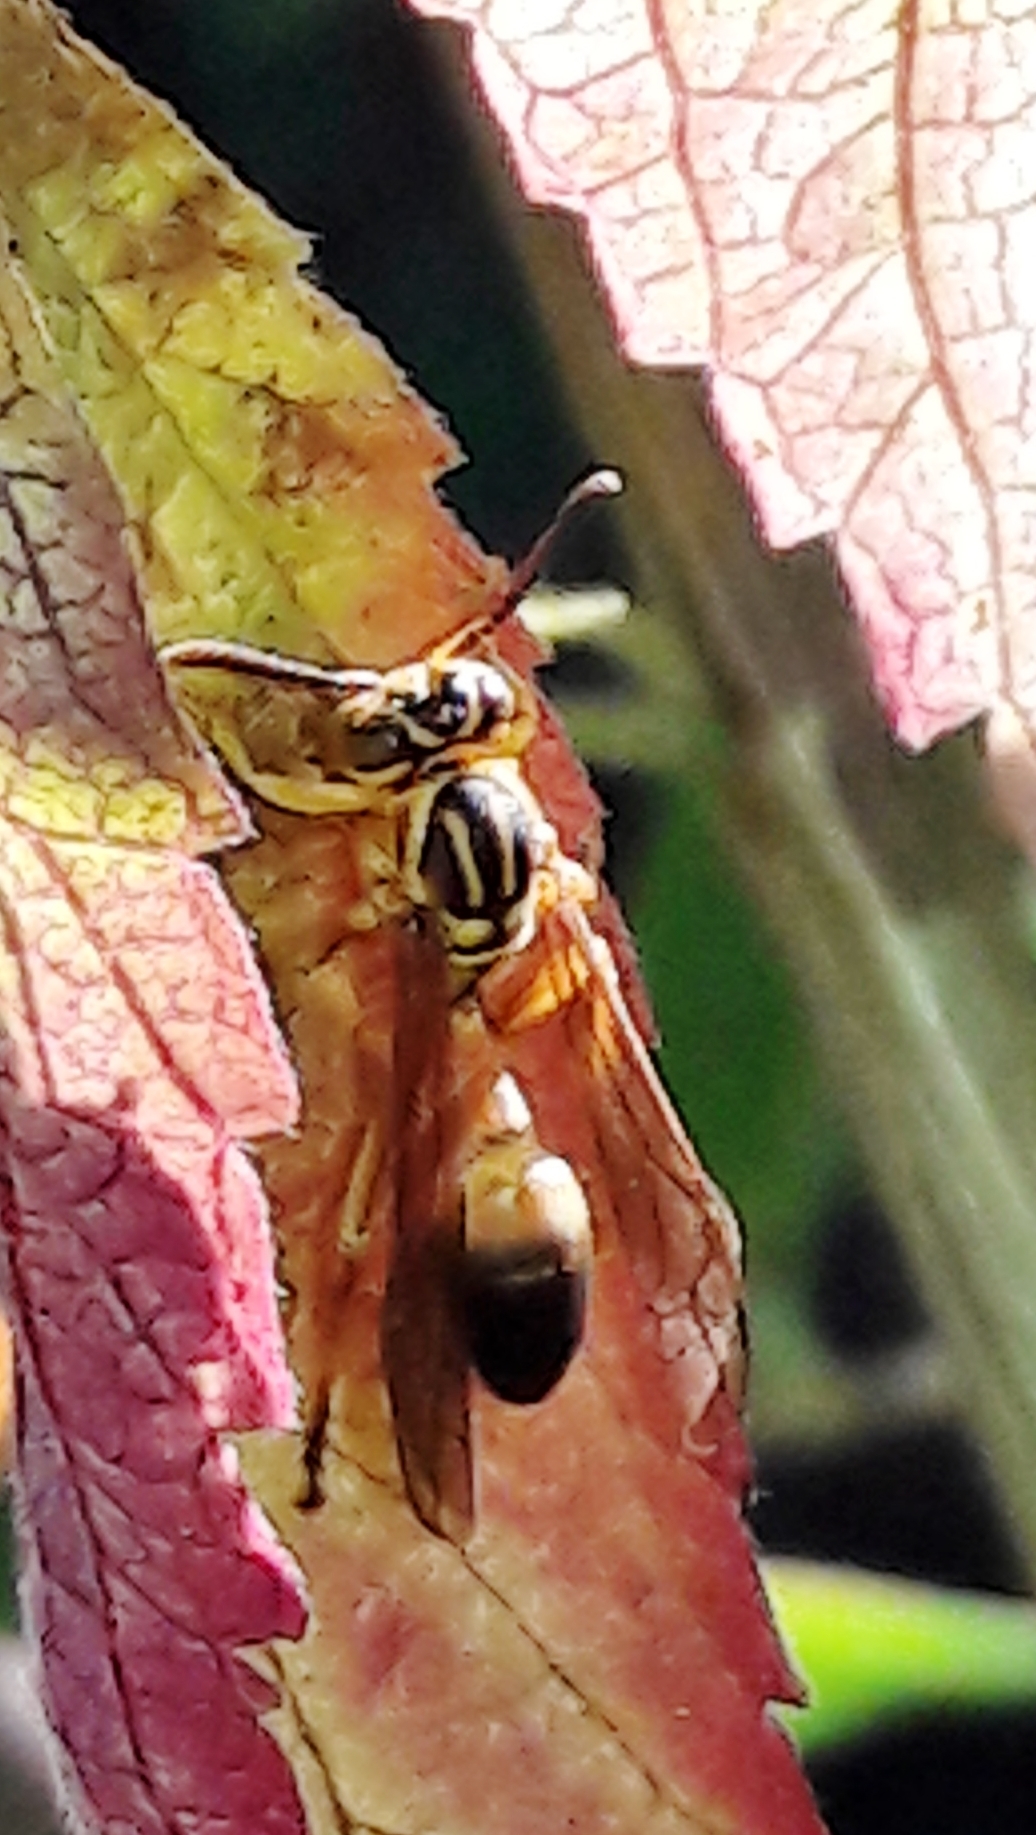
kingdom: Animalia
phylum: Arthropoda
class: Insecta
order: Hymenoptera
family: Vespidae
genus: Mischocyttarus
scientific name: Mischocyttarus cerberus
